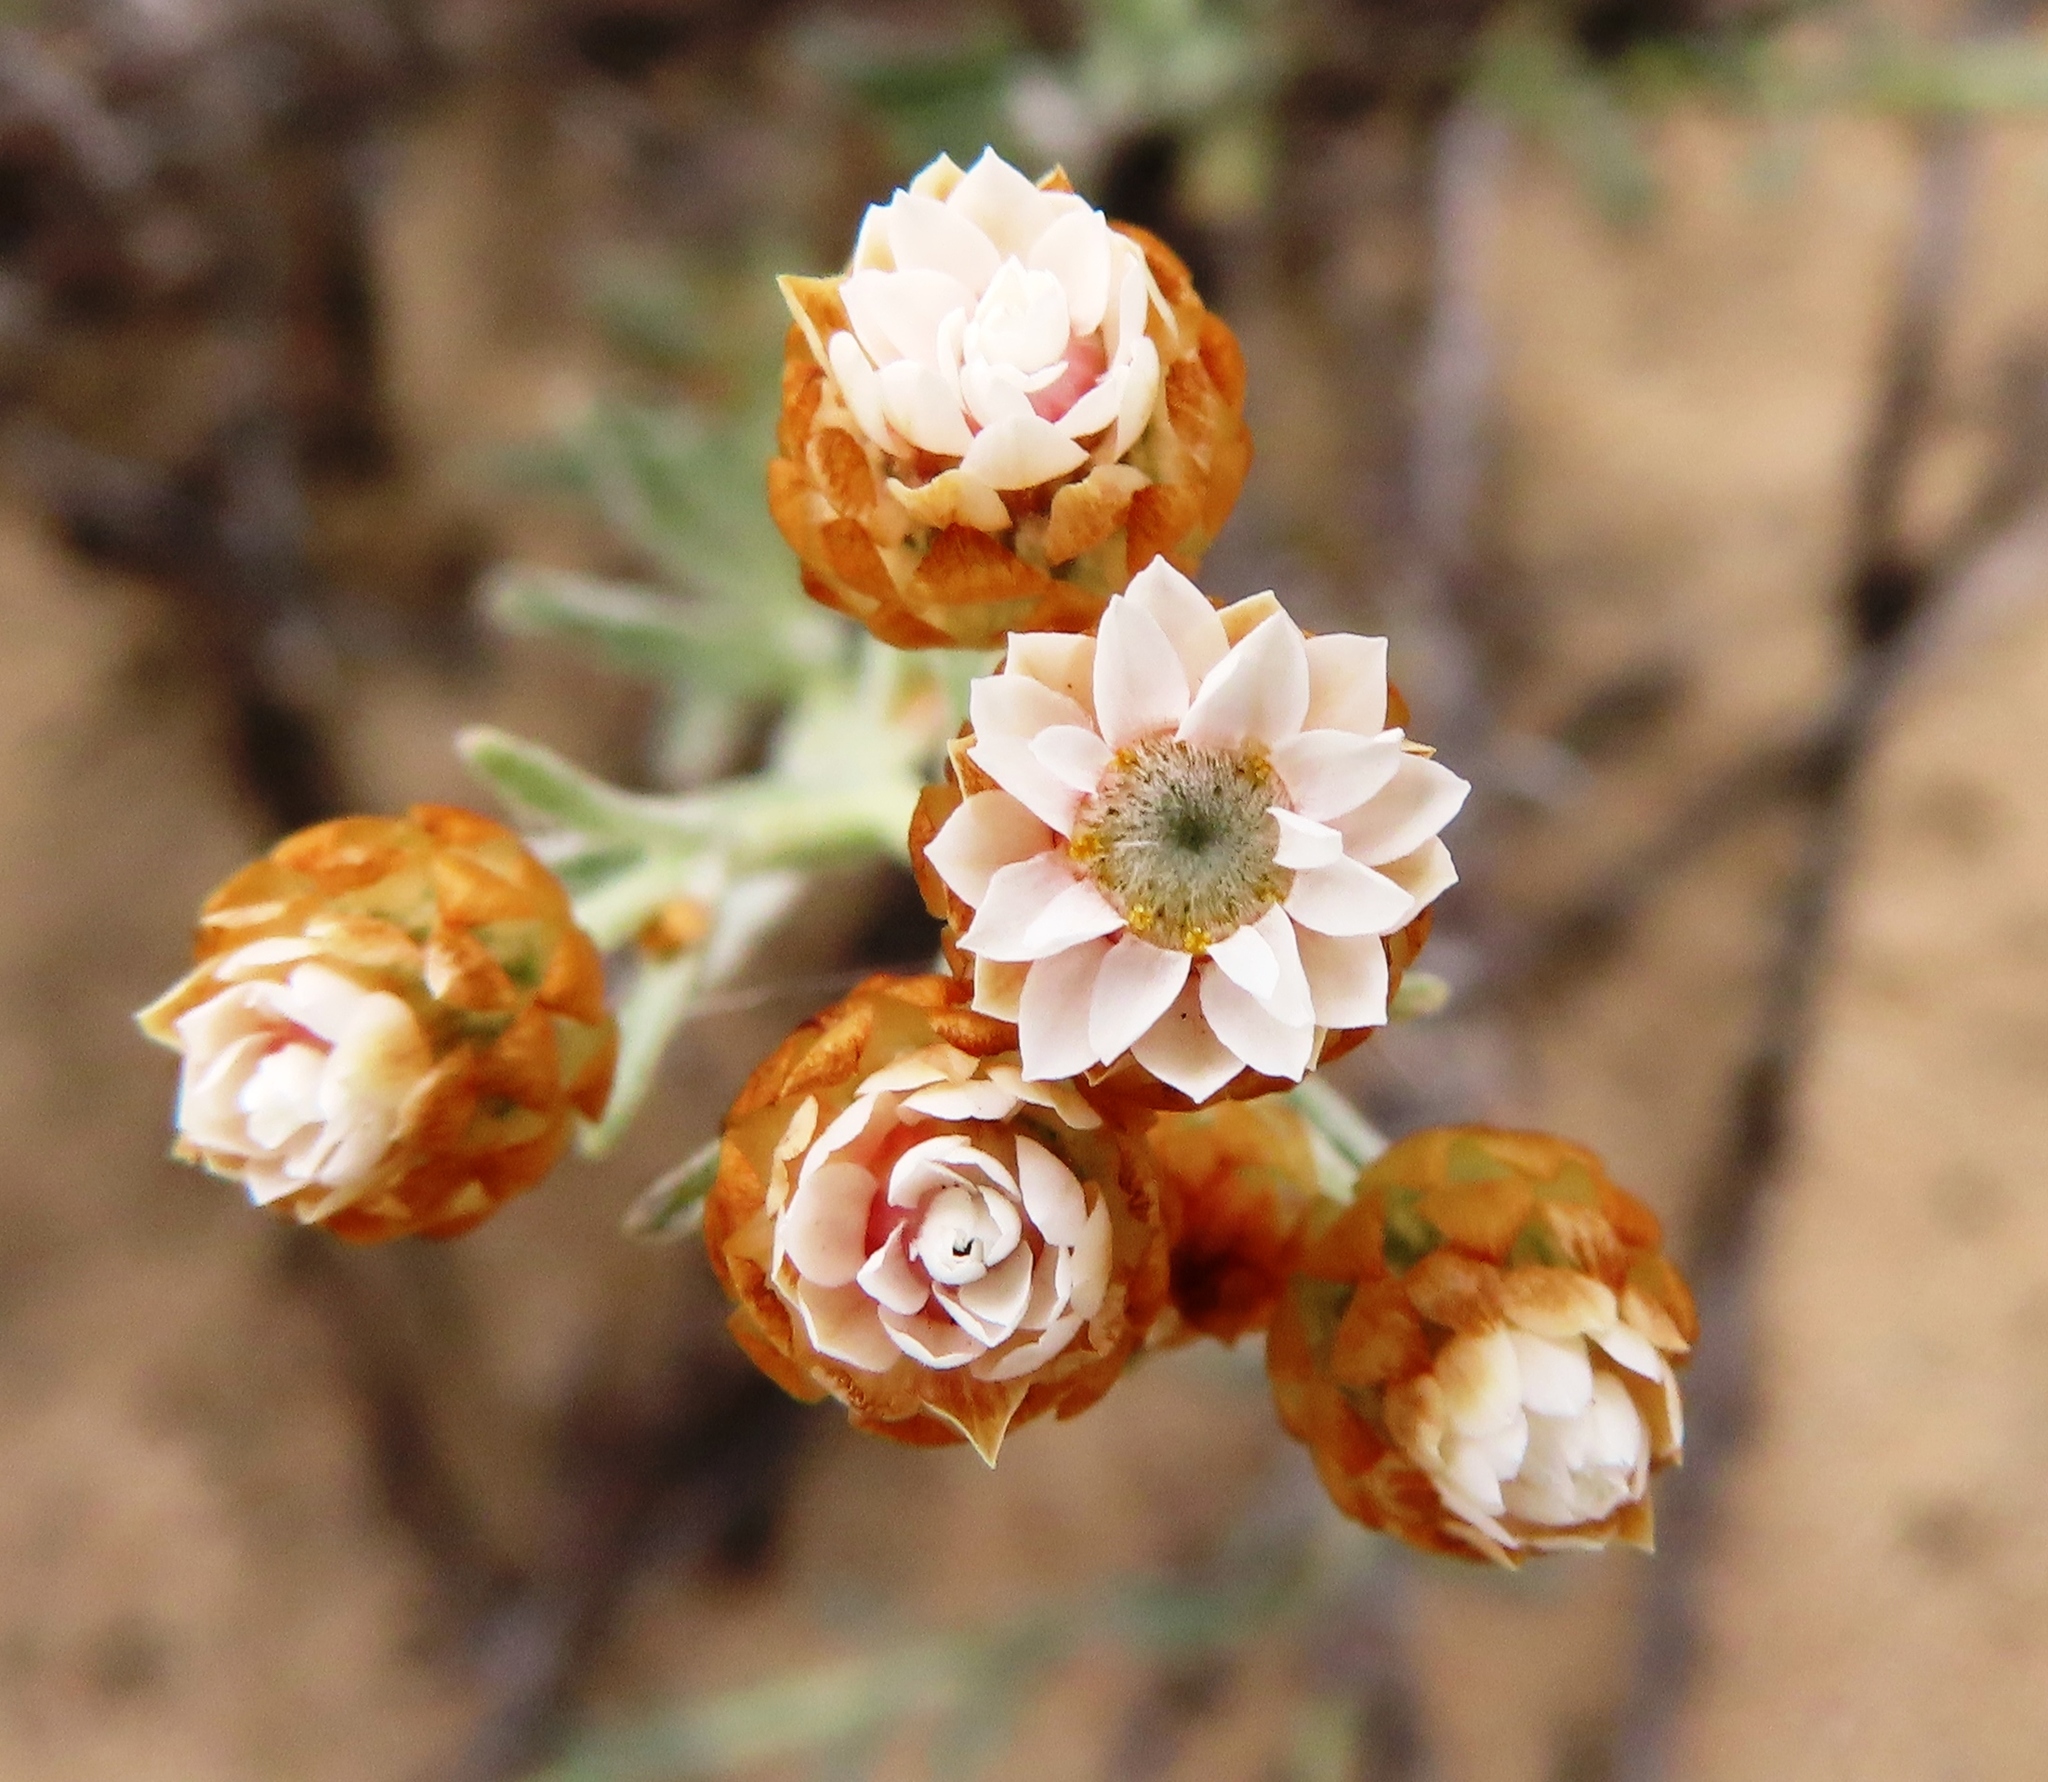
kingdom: Plantae
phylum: Tracheophyta
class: Magnoliopsida
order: Asterales
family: Asteraceae
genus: Helichrysum
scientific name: Helichrysum cochleariforme
